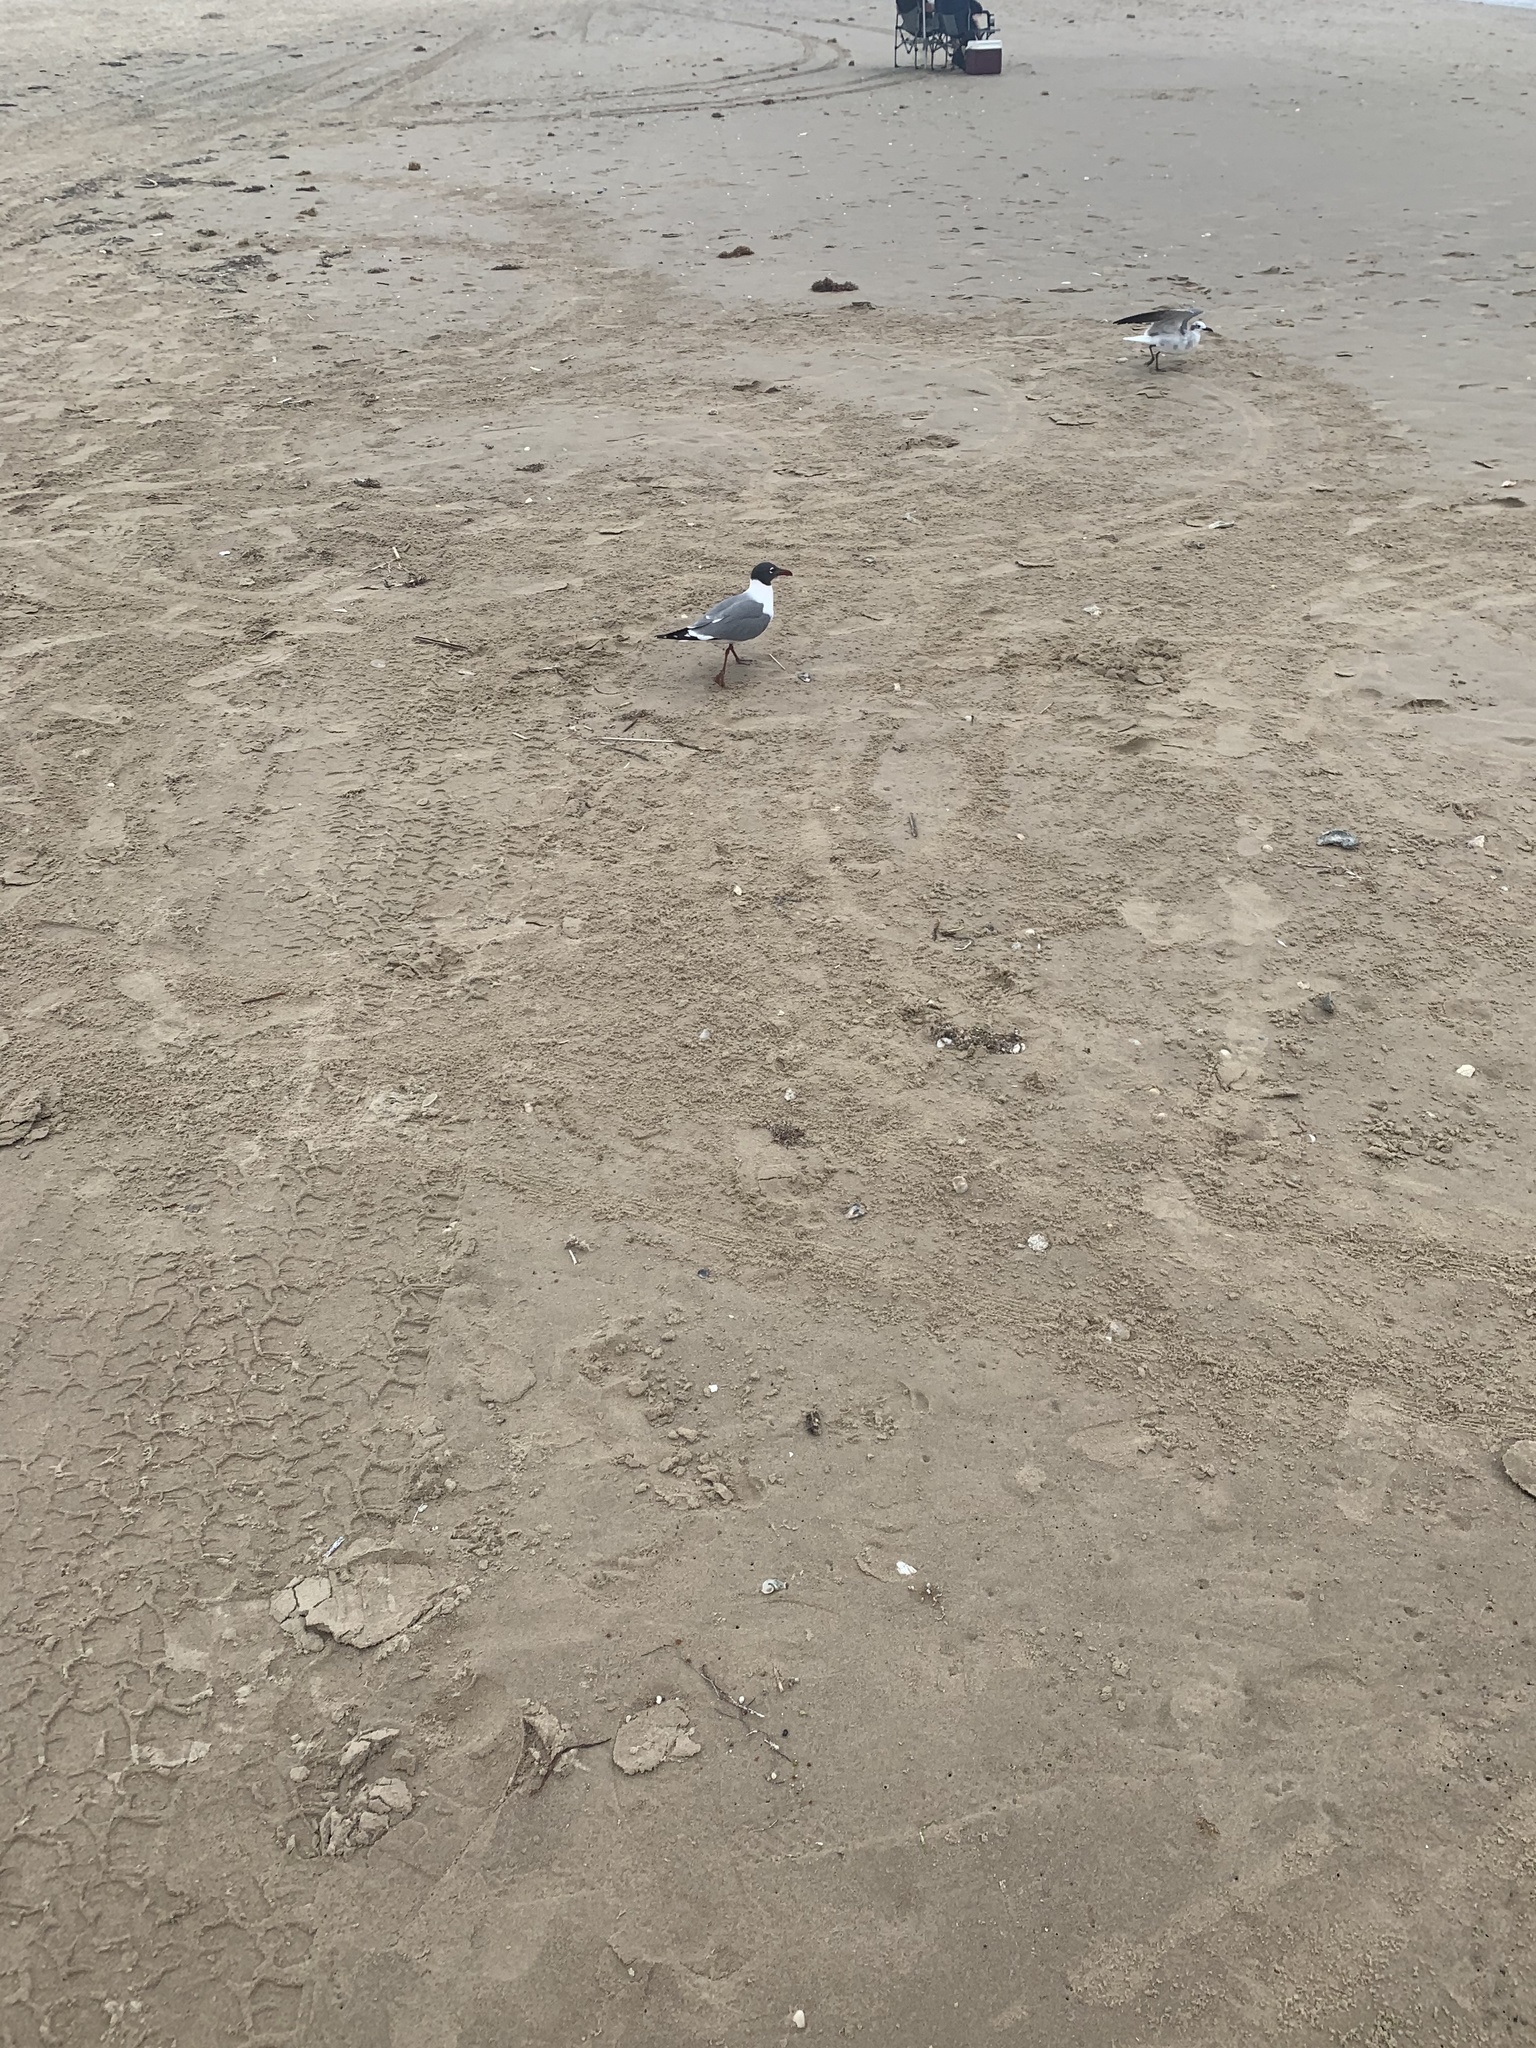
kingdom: Animalia
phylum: Chordata
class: Aves
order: Charadriiformes
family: Laridae
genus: Leucophaeus
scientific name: Leucophaeus atricilla
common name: Laughing gull
